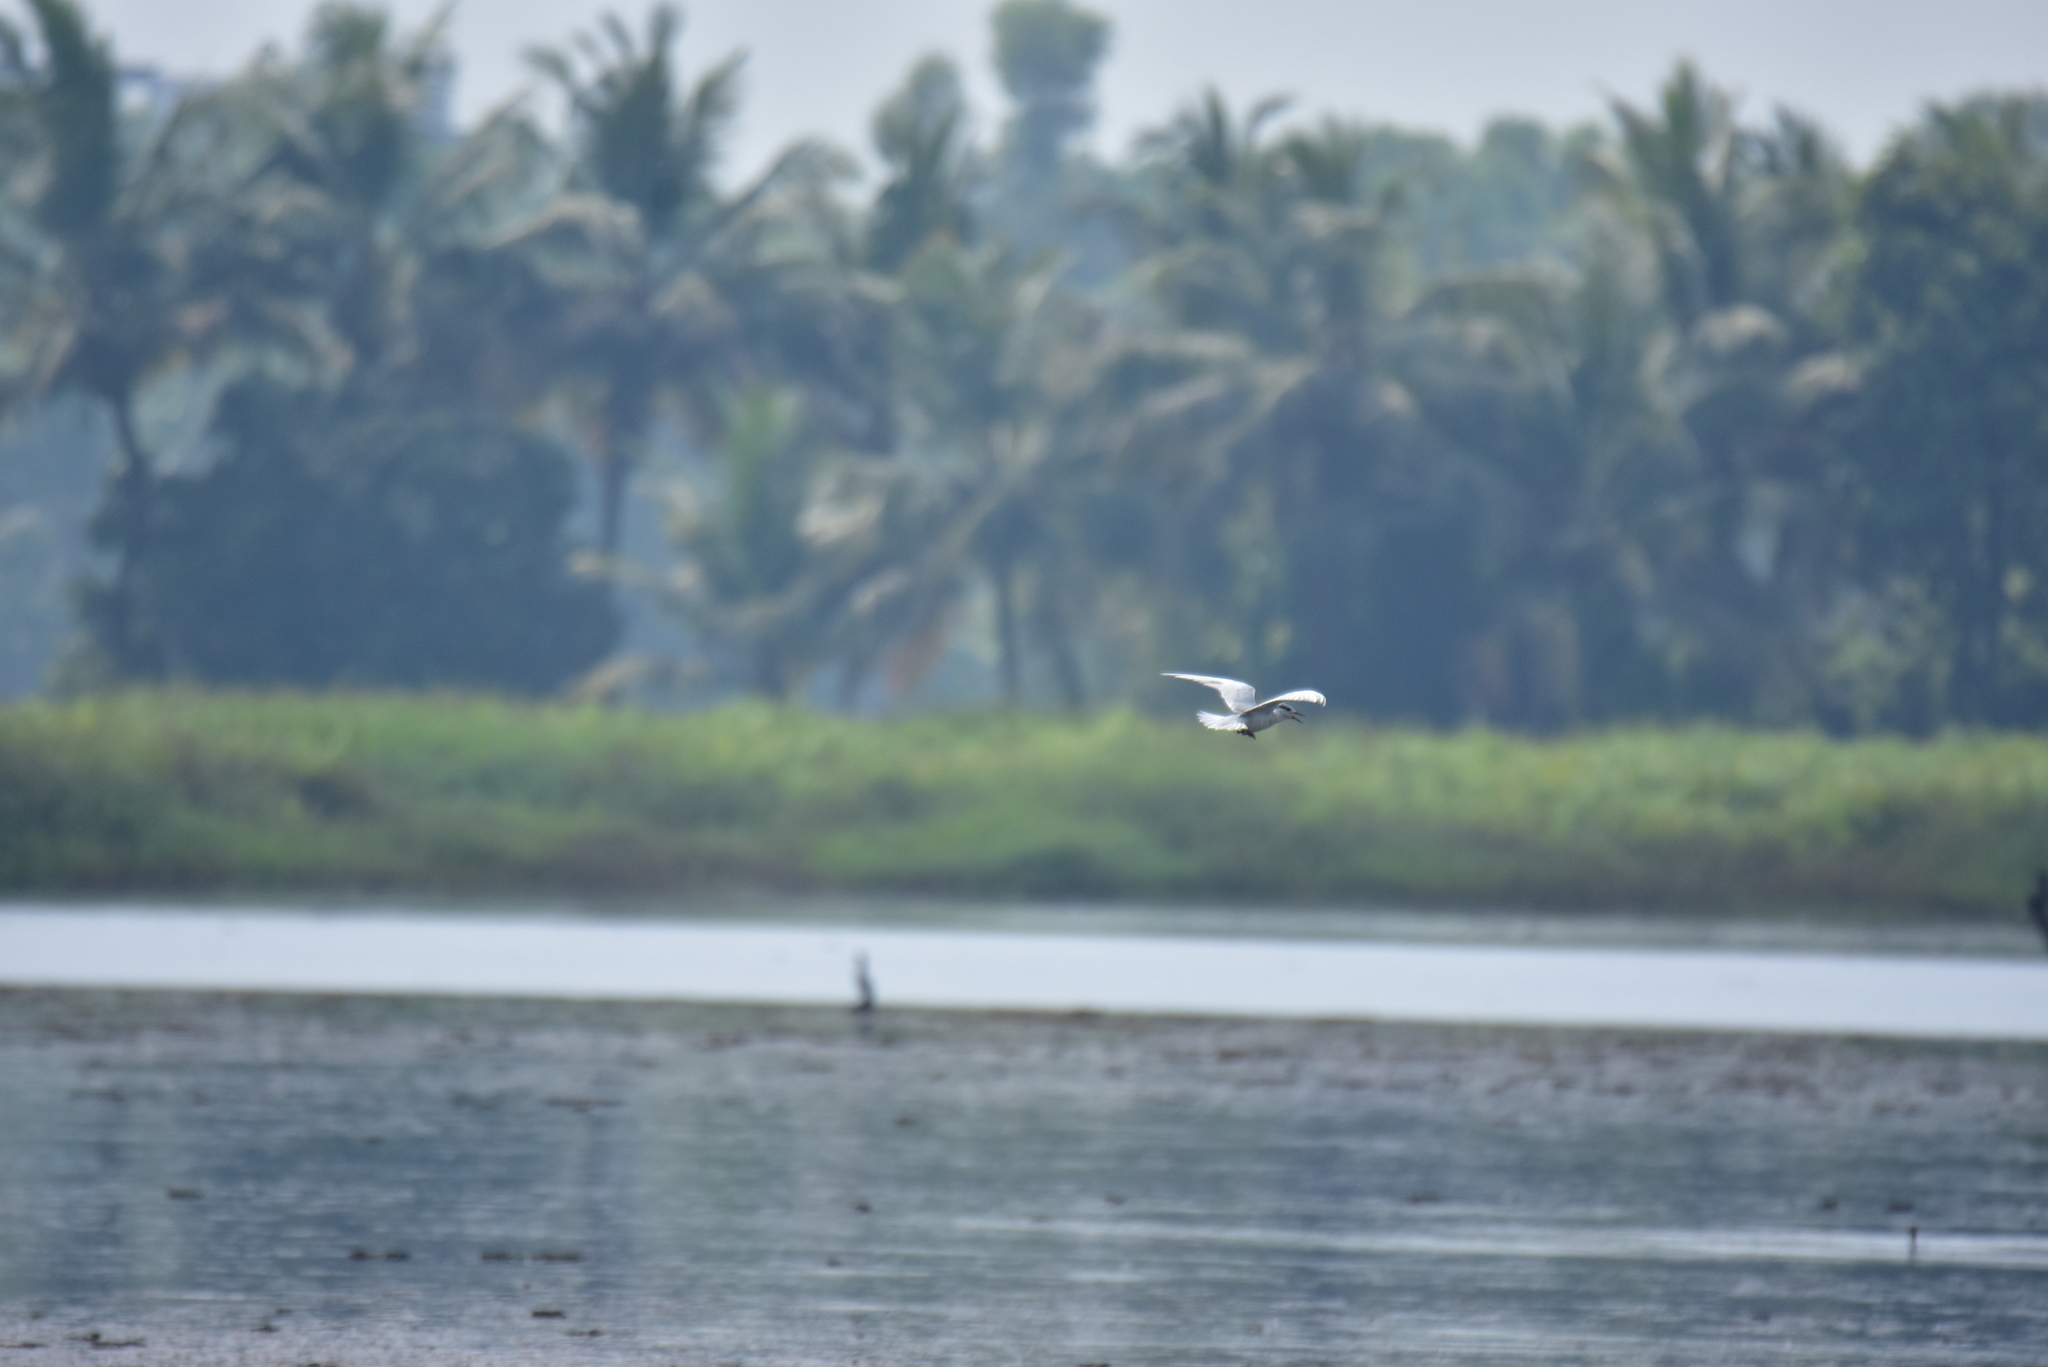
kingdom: Animalia
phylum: Chordata
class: Aves
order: Charadriiformes
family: Laridae
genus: Chlidonias
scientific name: Chlidonias hybrida
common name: Whiskered tern
